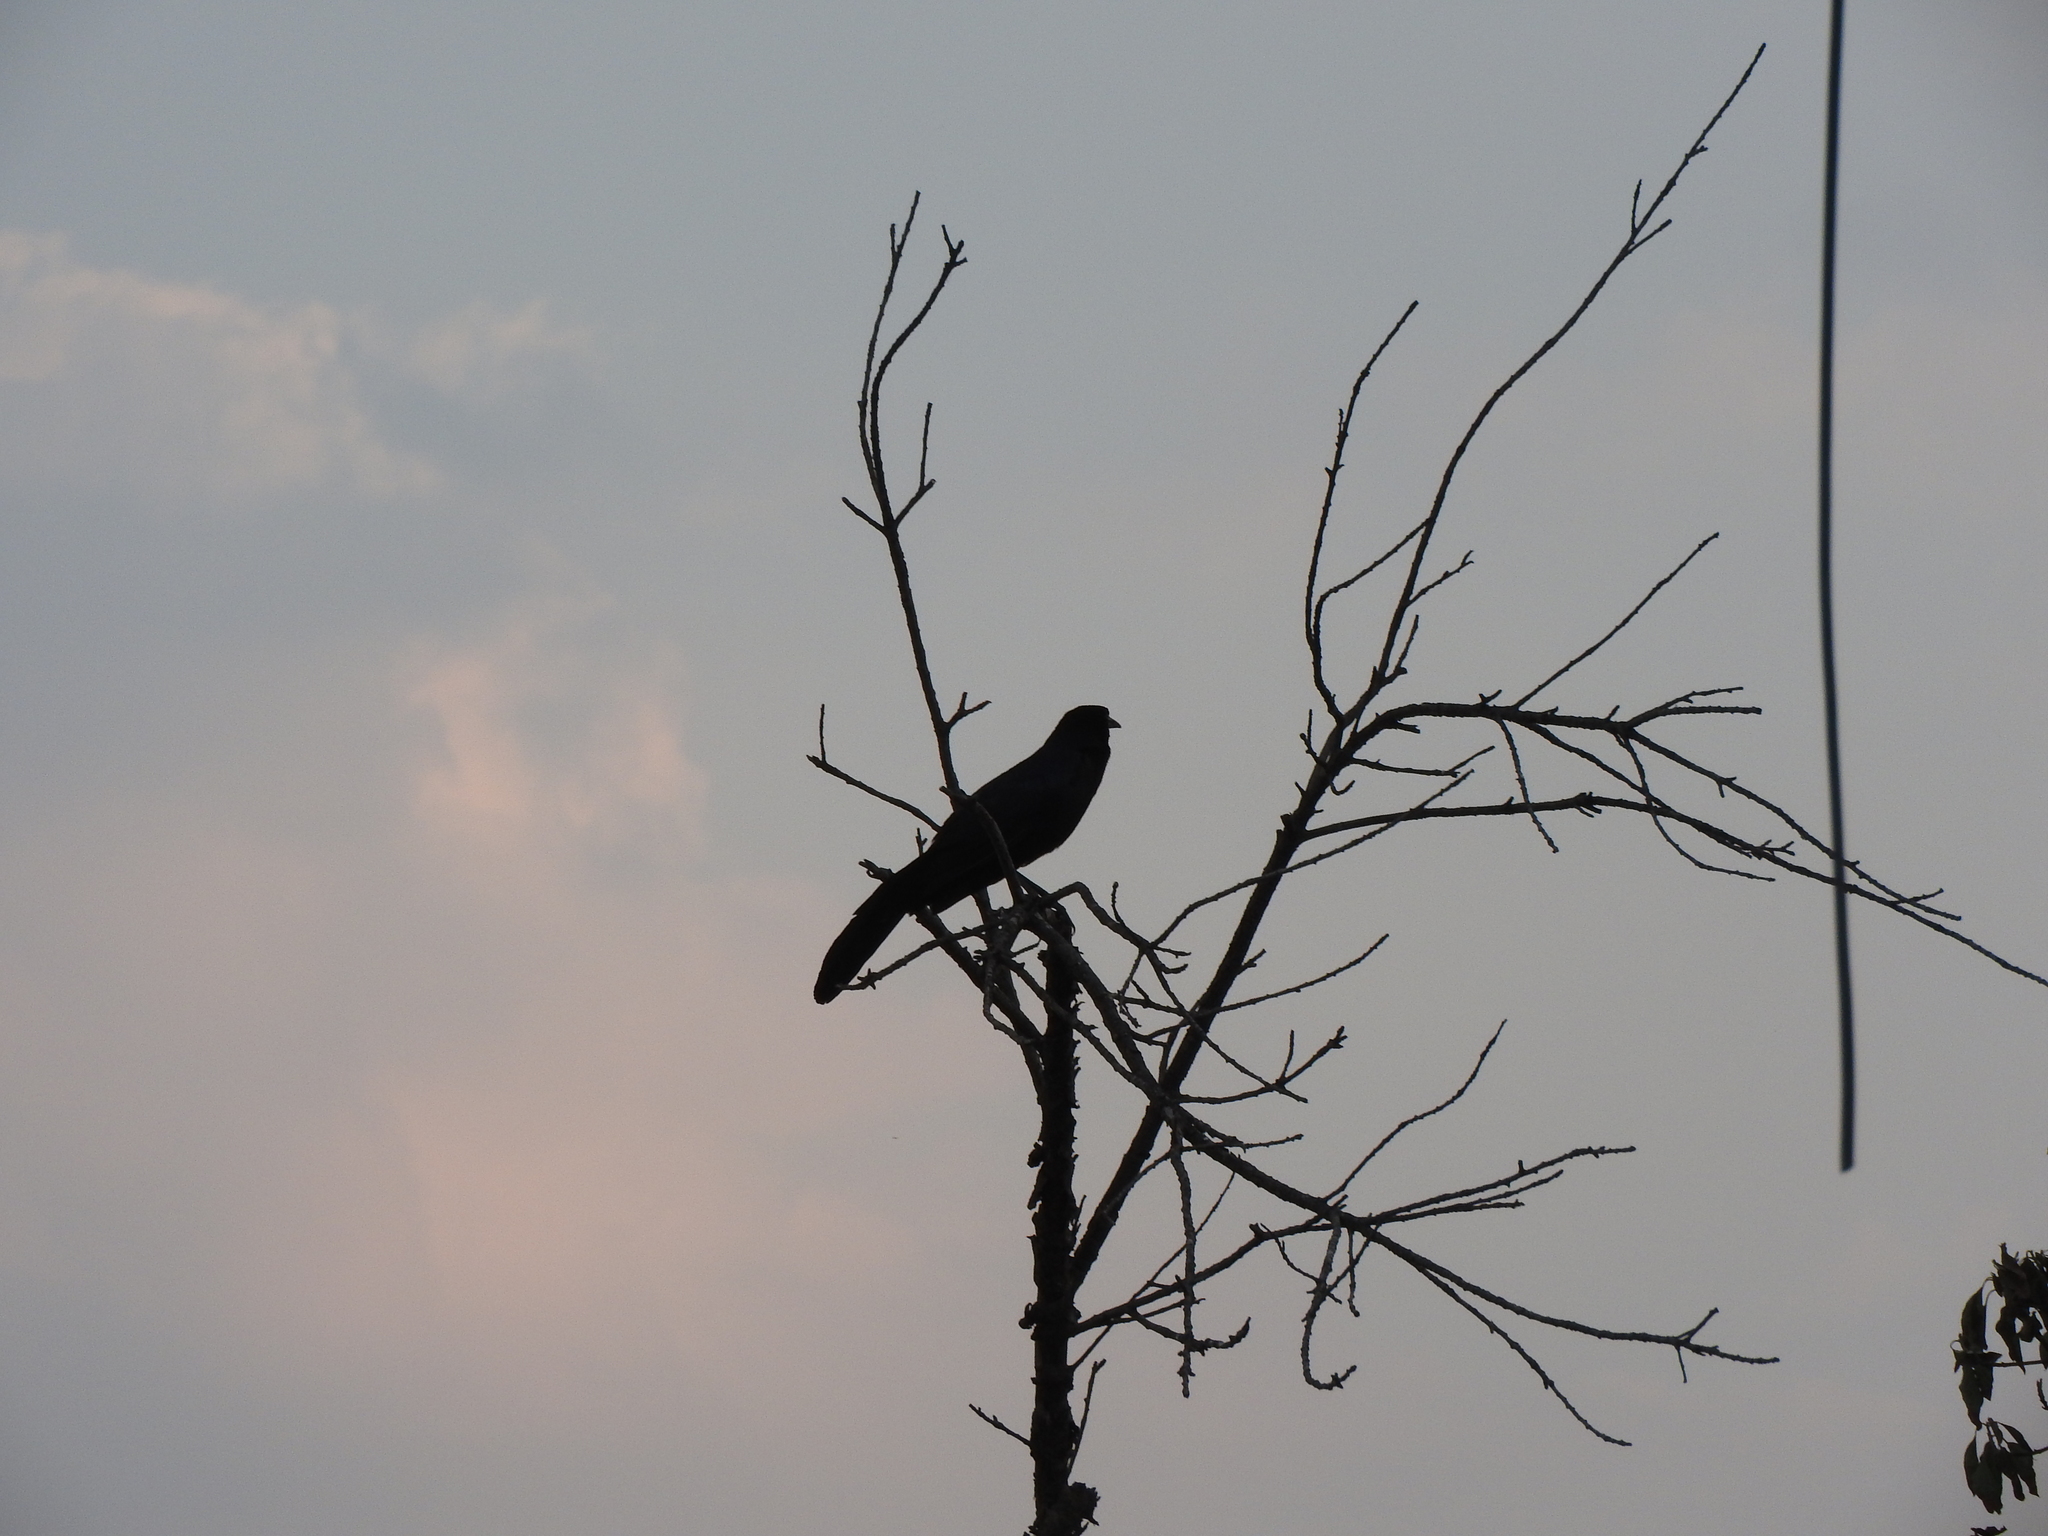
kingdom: Animalia
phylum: Chordata
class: Aves
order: Passeriformes
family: Icteridae
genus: Quiscalus
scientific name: Quiscalus mexicanus
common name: Great-tailed grackle
